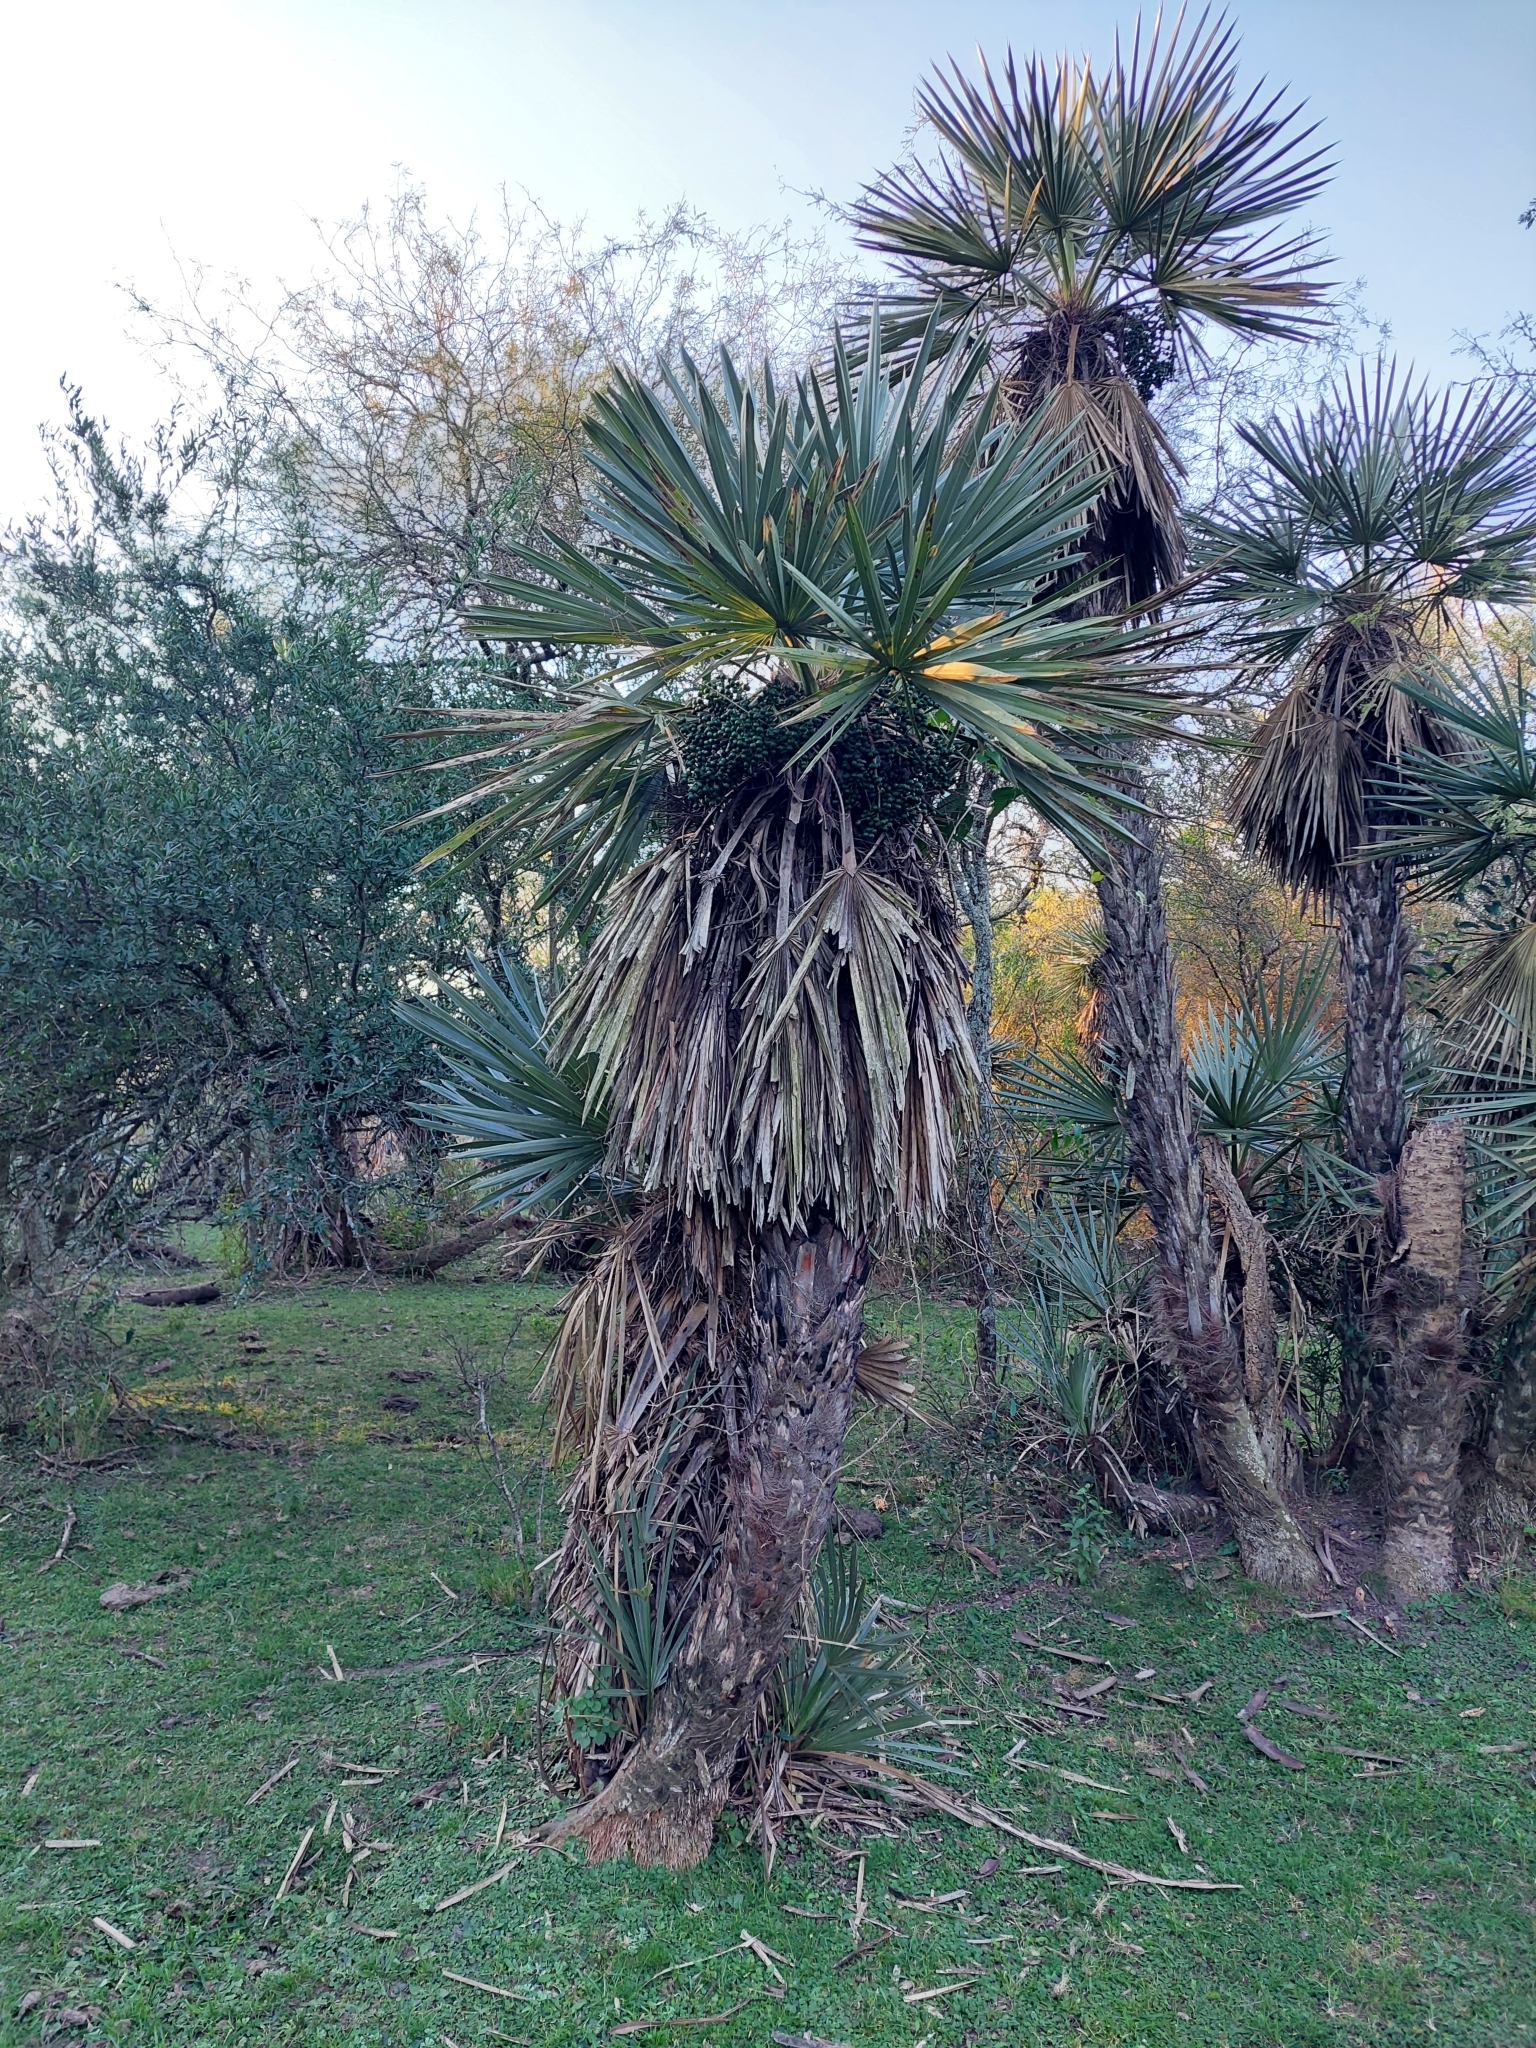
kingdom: Plantae
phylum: Tracheophyta
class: Liliopsida
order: Arecales
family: Arecaceae
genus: Trithrinax
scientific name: Trithrinax campestris
